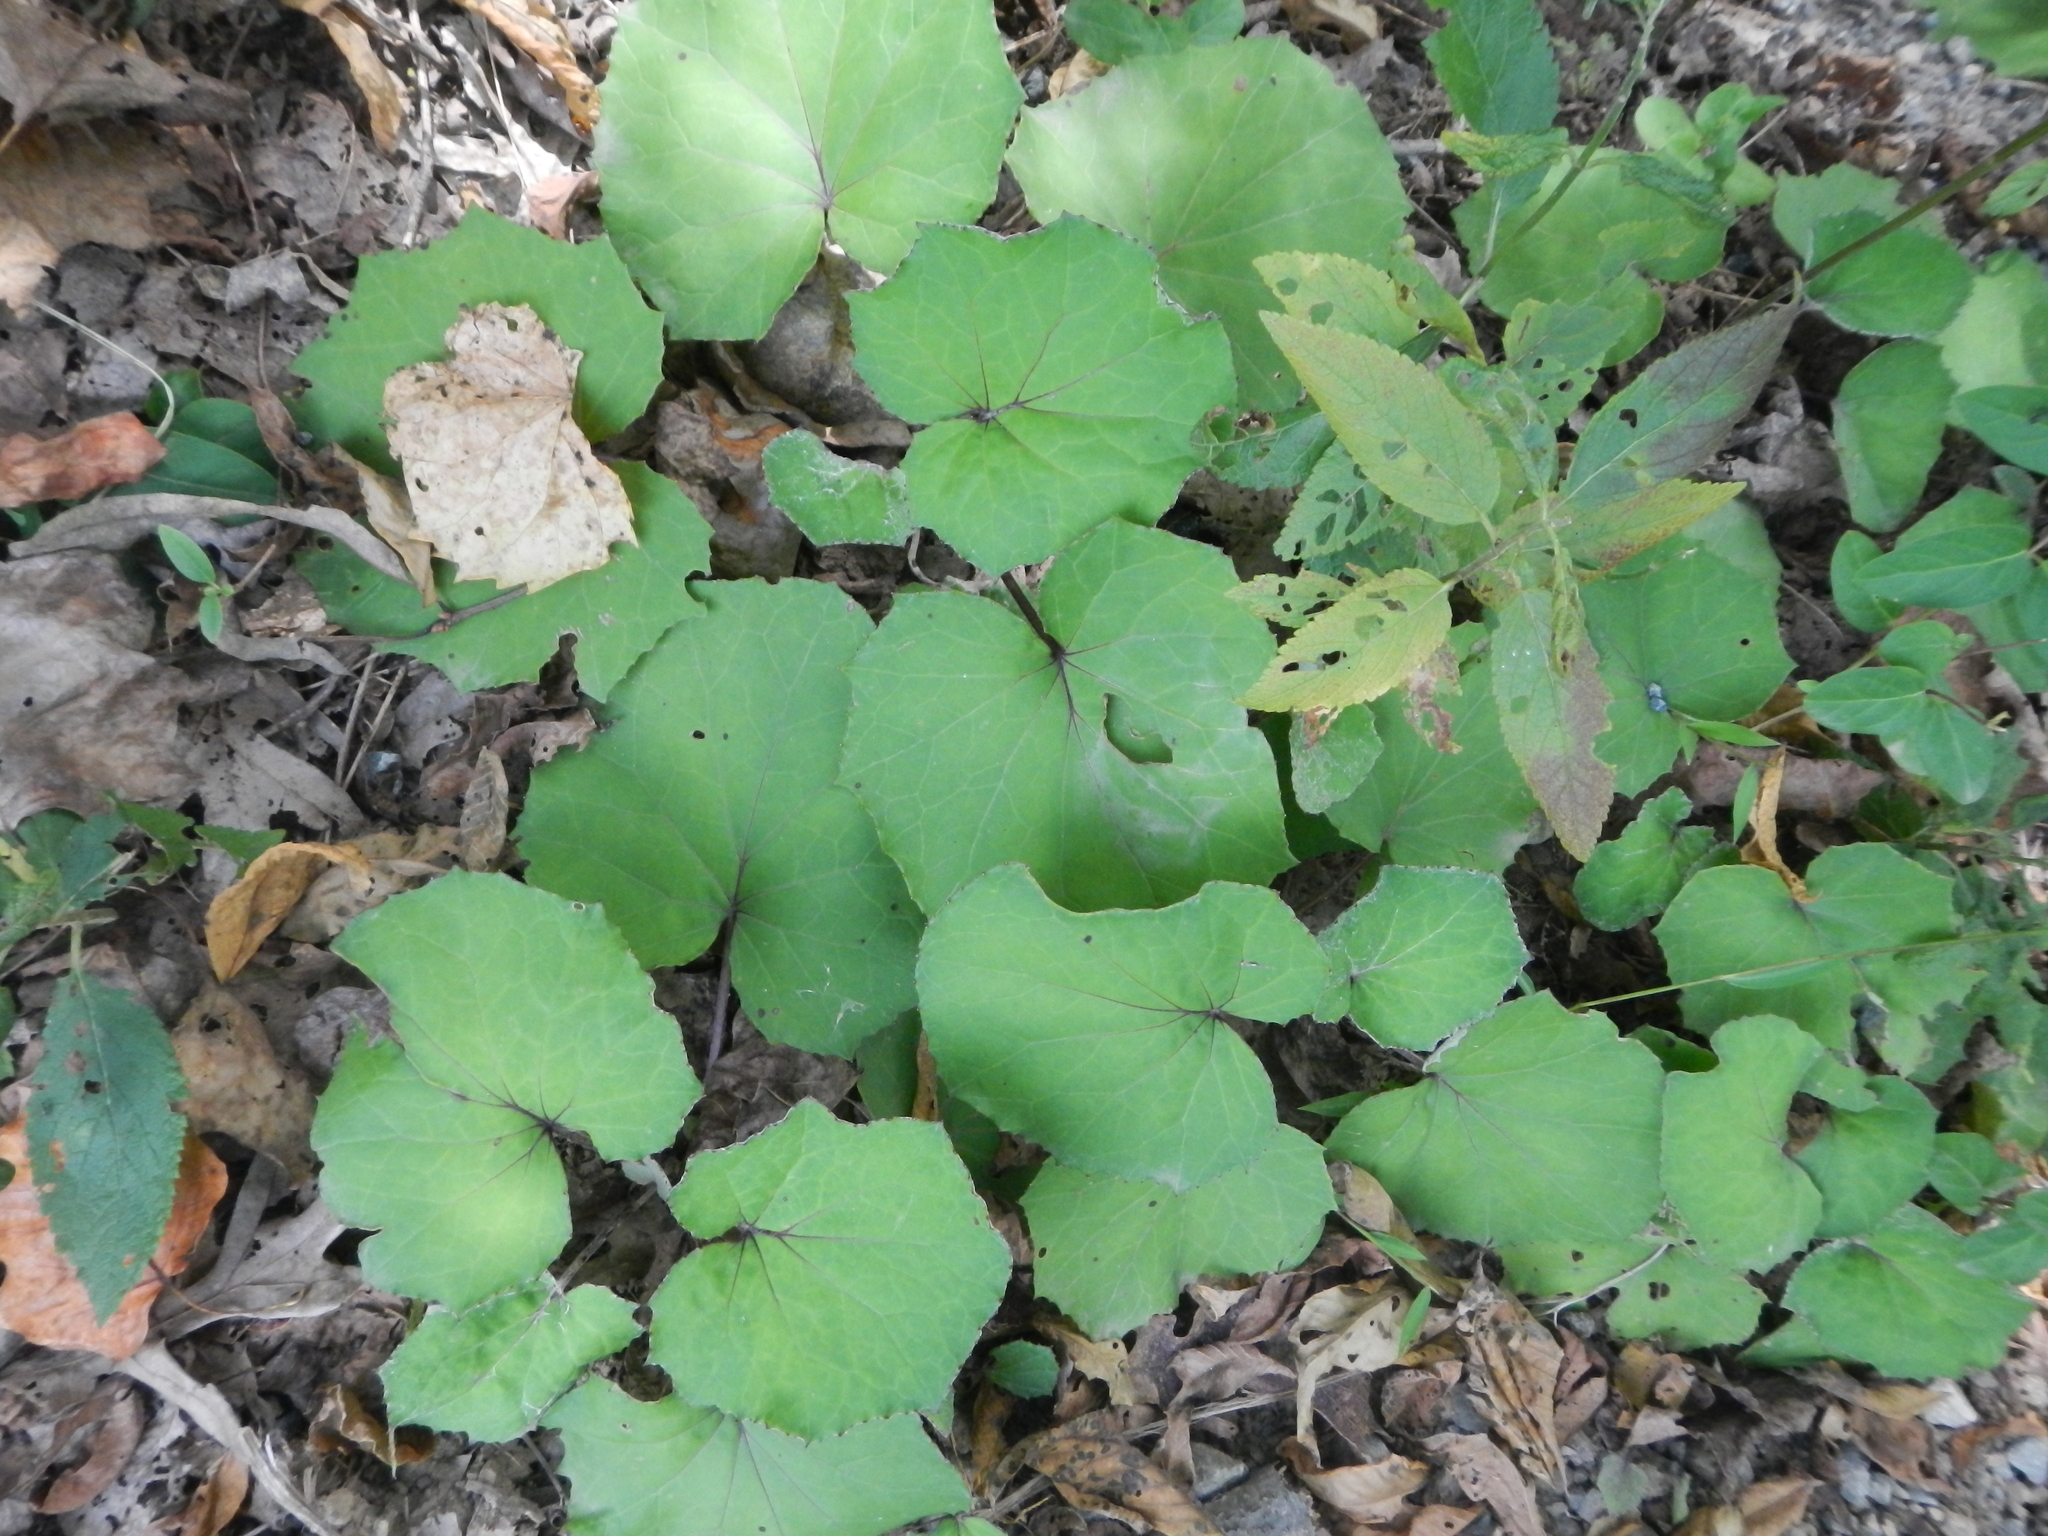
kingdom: Plantae
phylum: Tracheophyta
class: Magnoliopsida
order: Asterales
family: Asteraceae
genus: Tussilago
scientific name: Tussilago farfara
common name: Coltsfoot
